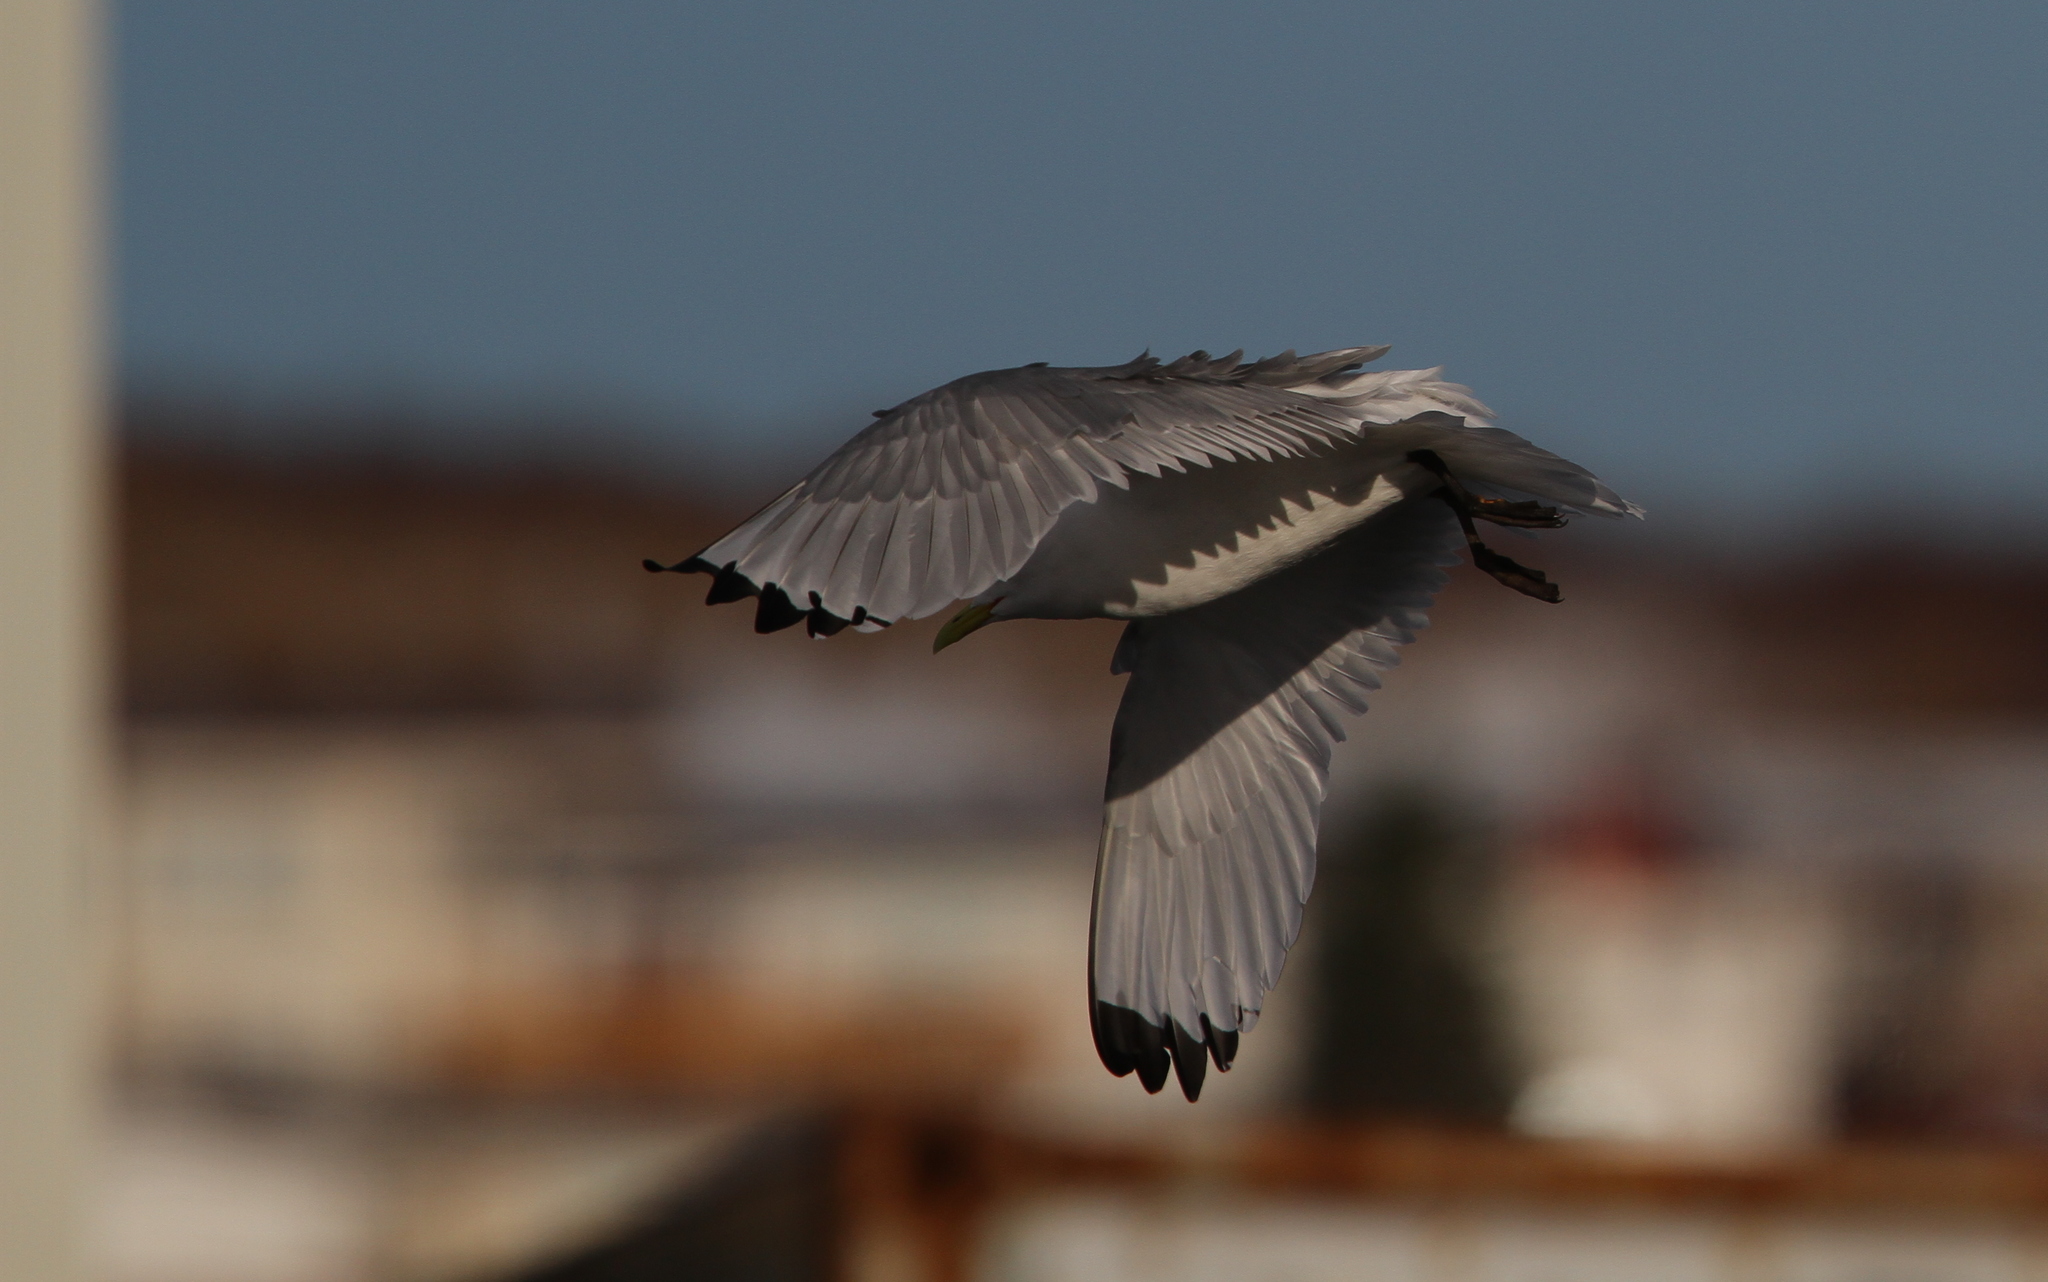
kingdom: Animalia
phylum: Chordata
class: Aves
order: Charadriiformes
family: Laridae
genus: Rissa
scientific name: Rissa tridactyla
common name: Black-legged kittiwake
